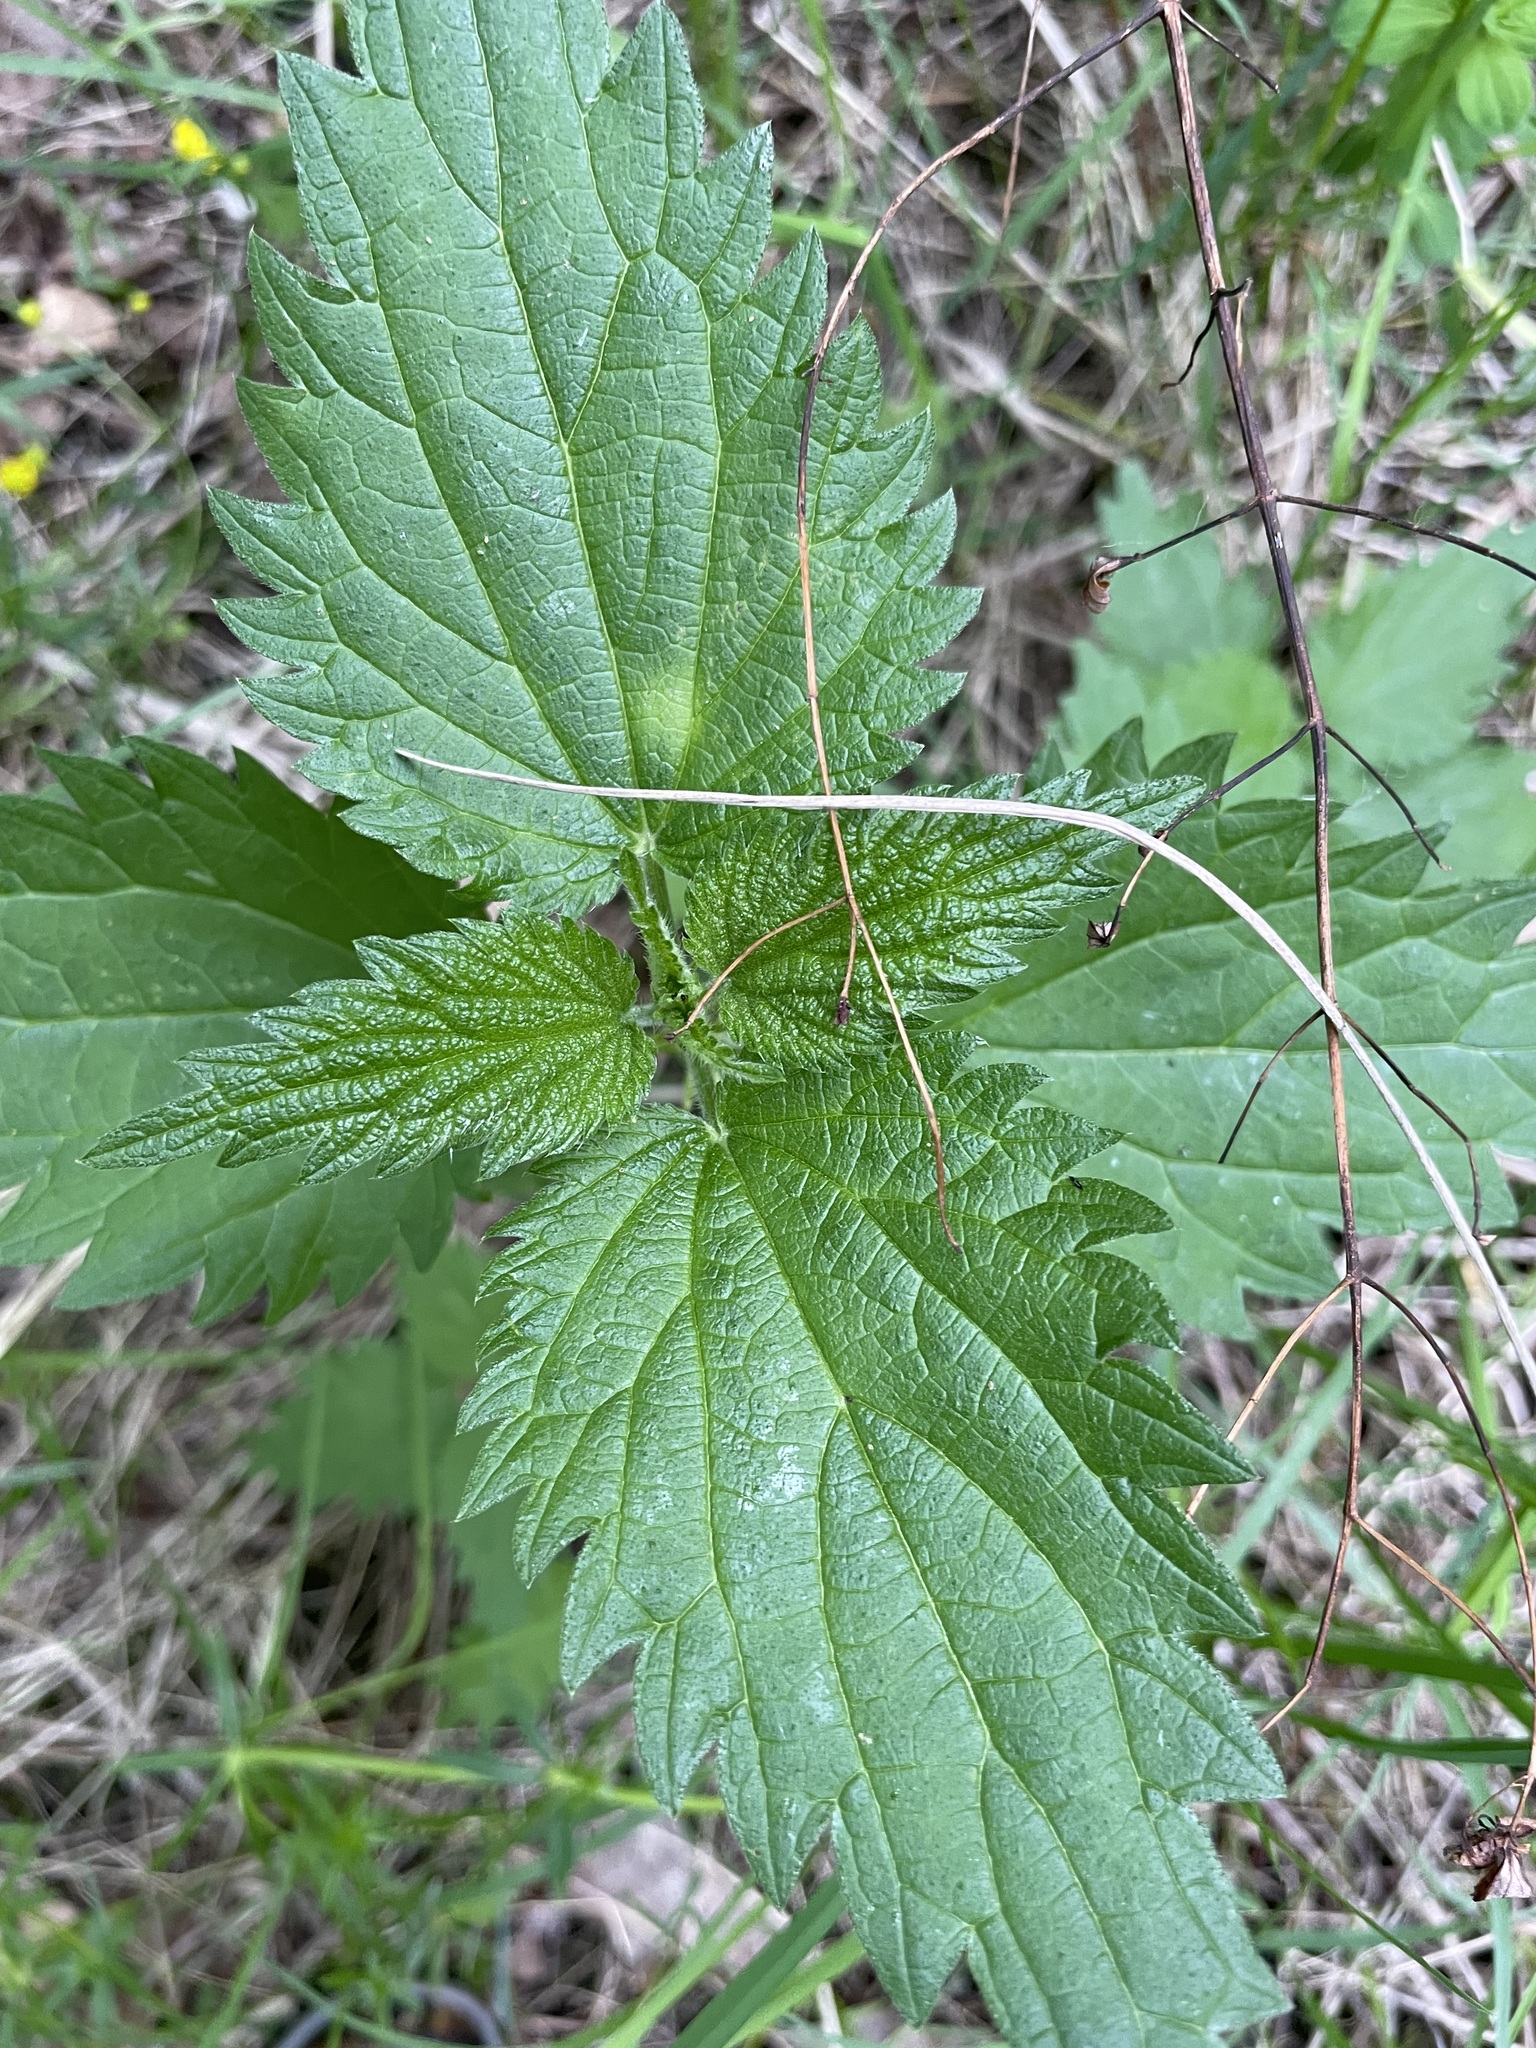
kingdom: Plantae
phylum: Tracheophyta
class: Magnoliopsida
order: Rosales
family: Urticaceae
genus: Urtica
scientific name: Urtica dioica
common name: Common nettle
